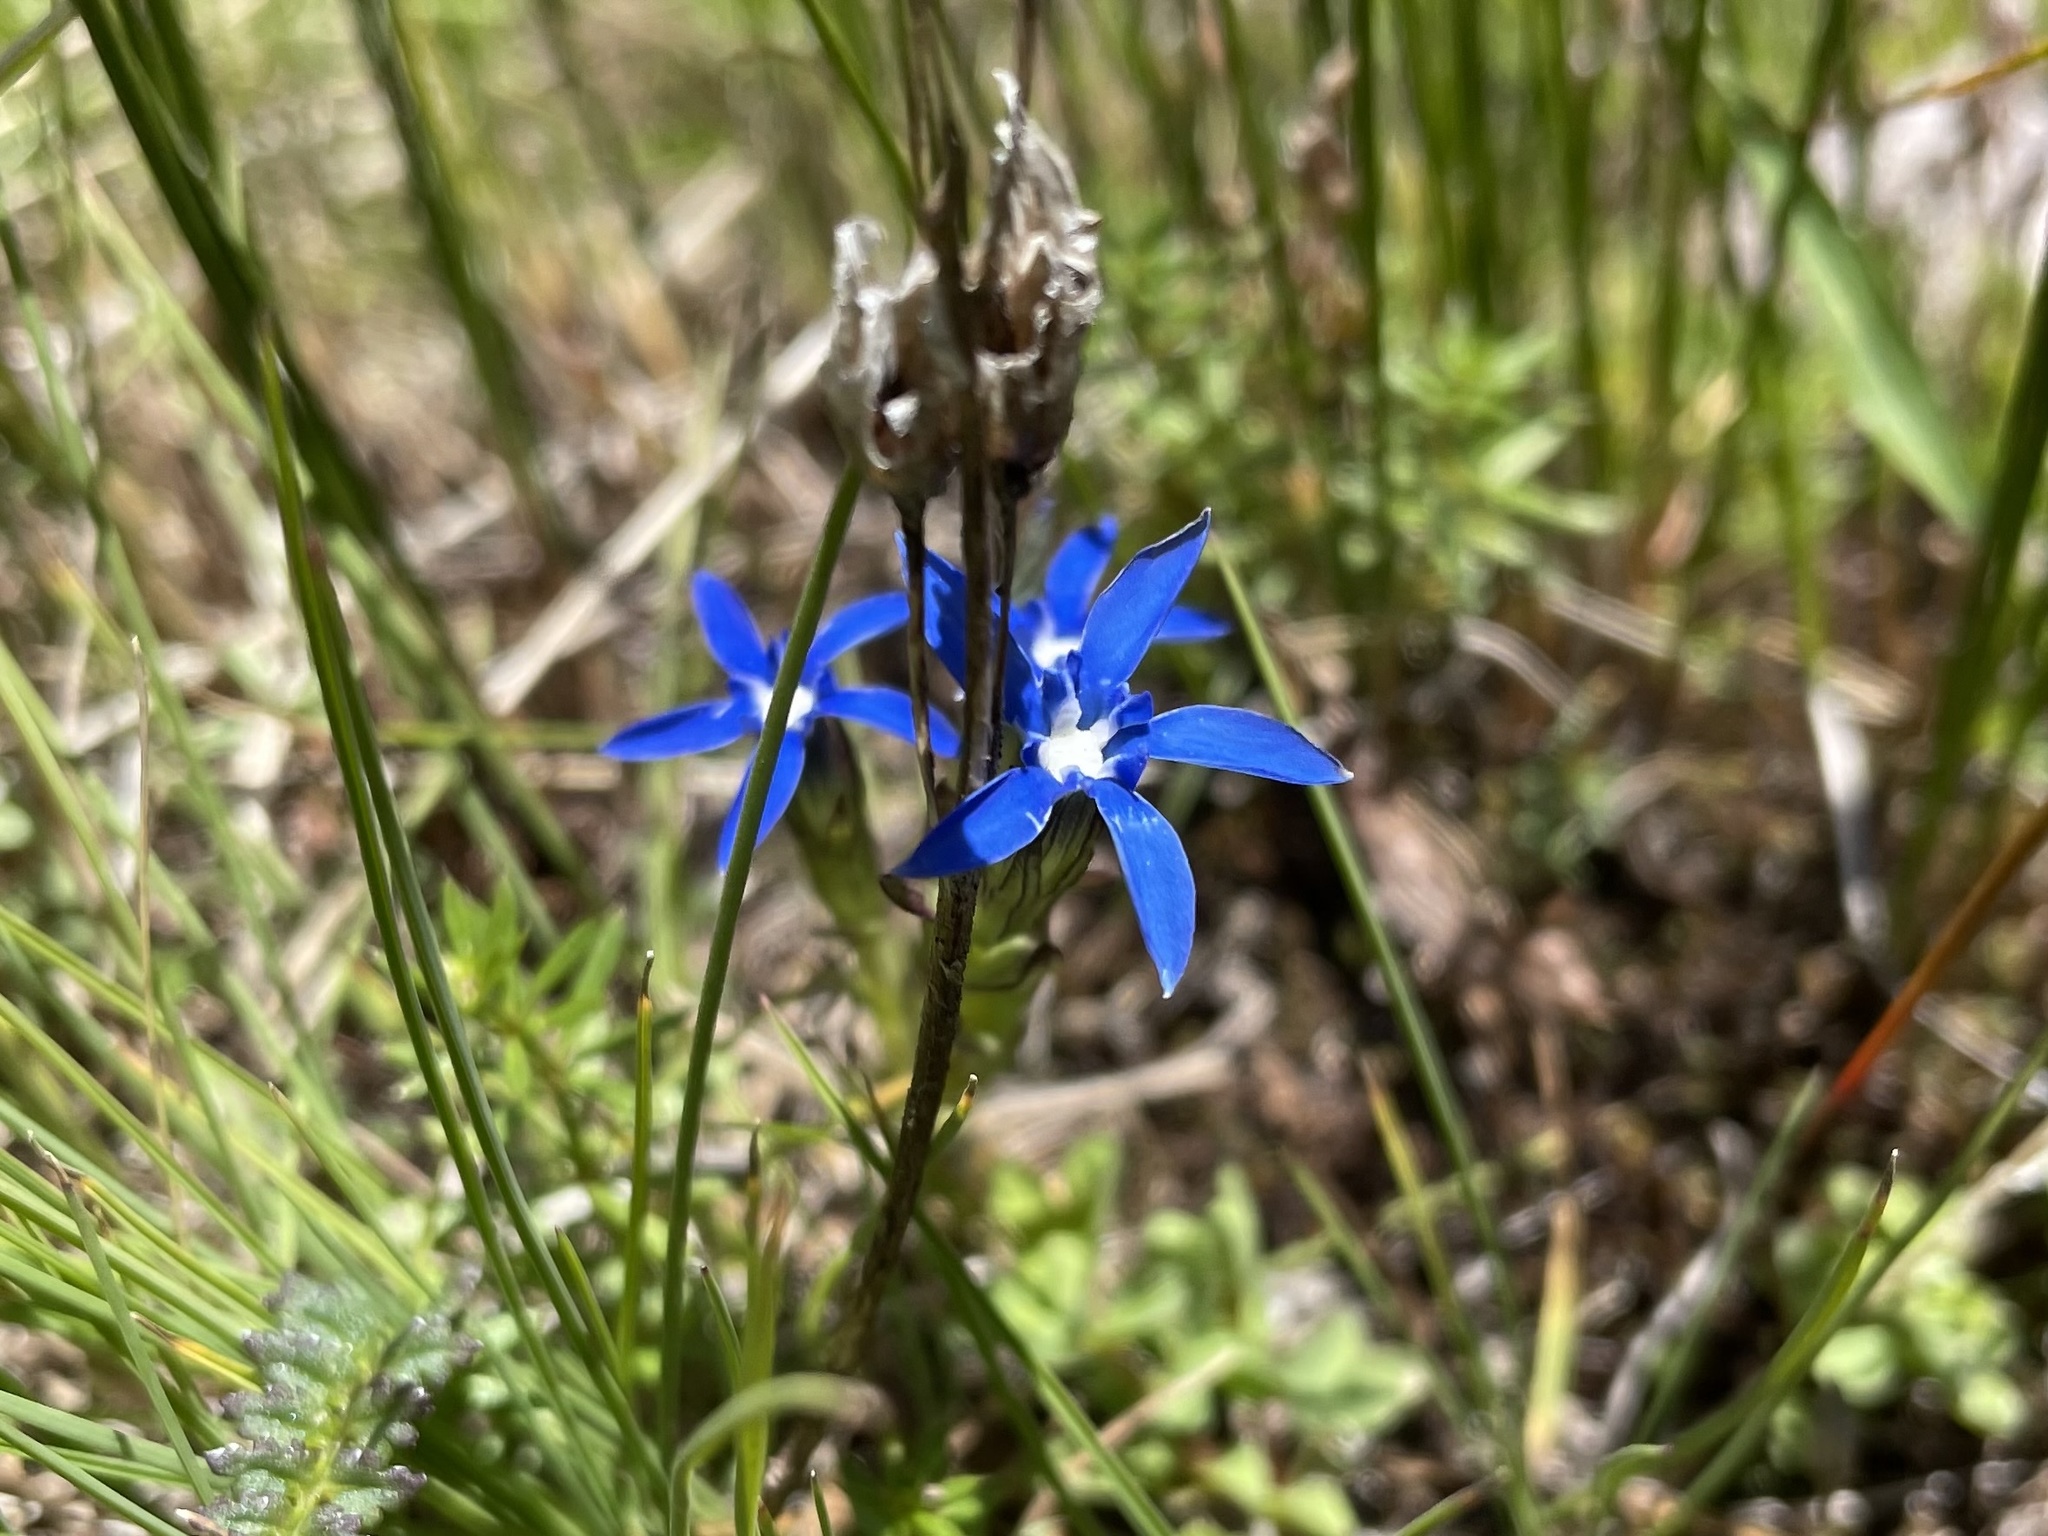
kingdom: Plantae
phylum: Tracheophyta
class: Magnoliopsida
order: Gentianales
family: Gentianaceae
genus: Gentiana
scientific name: Gentiana nivalis
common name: Alpine gentian
